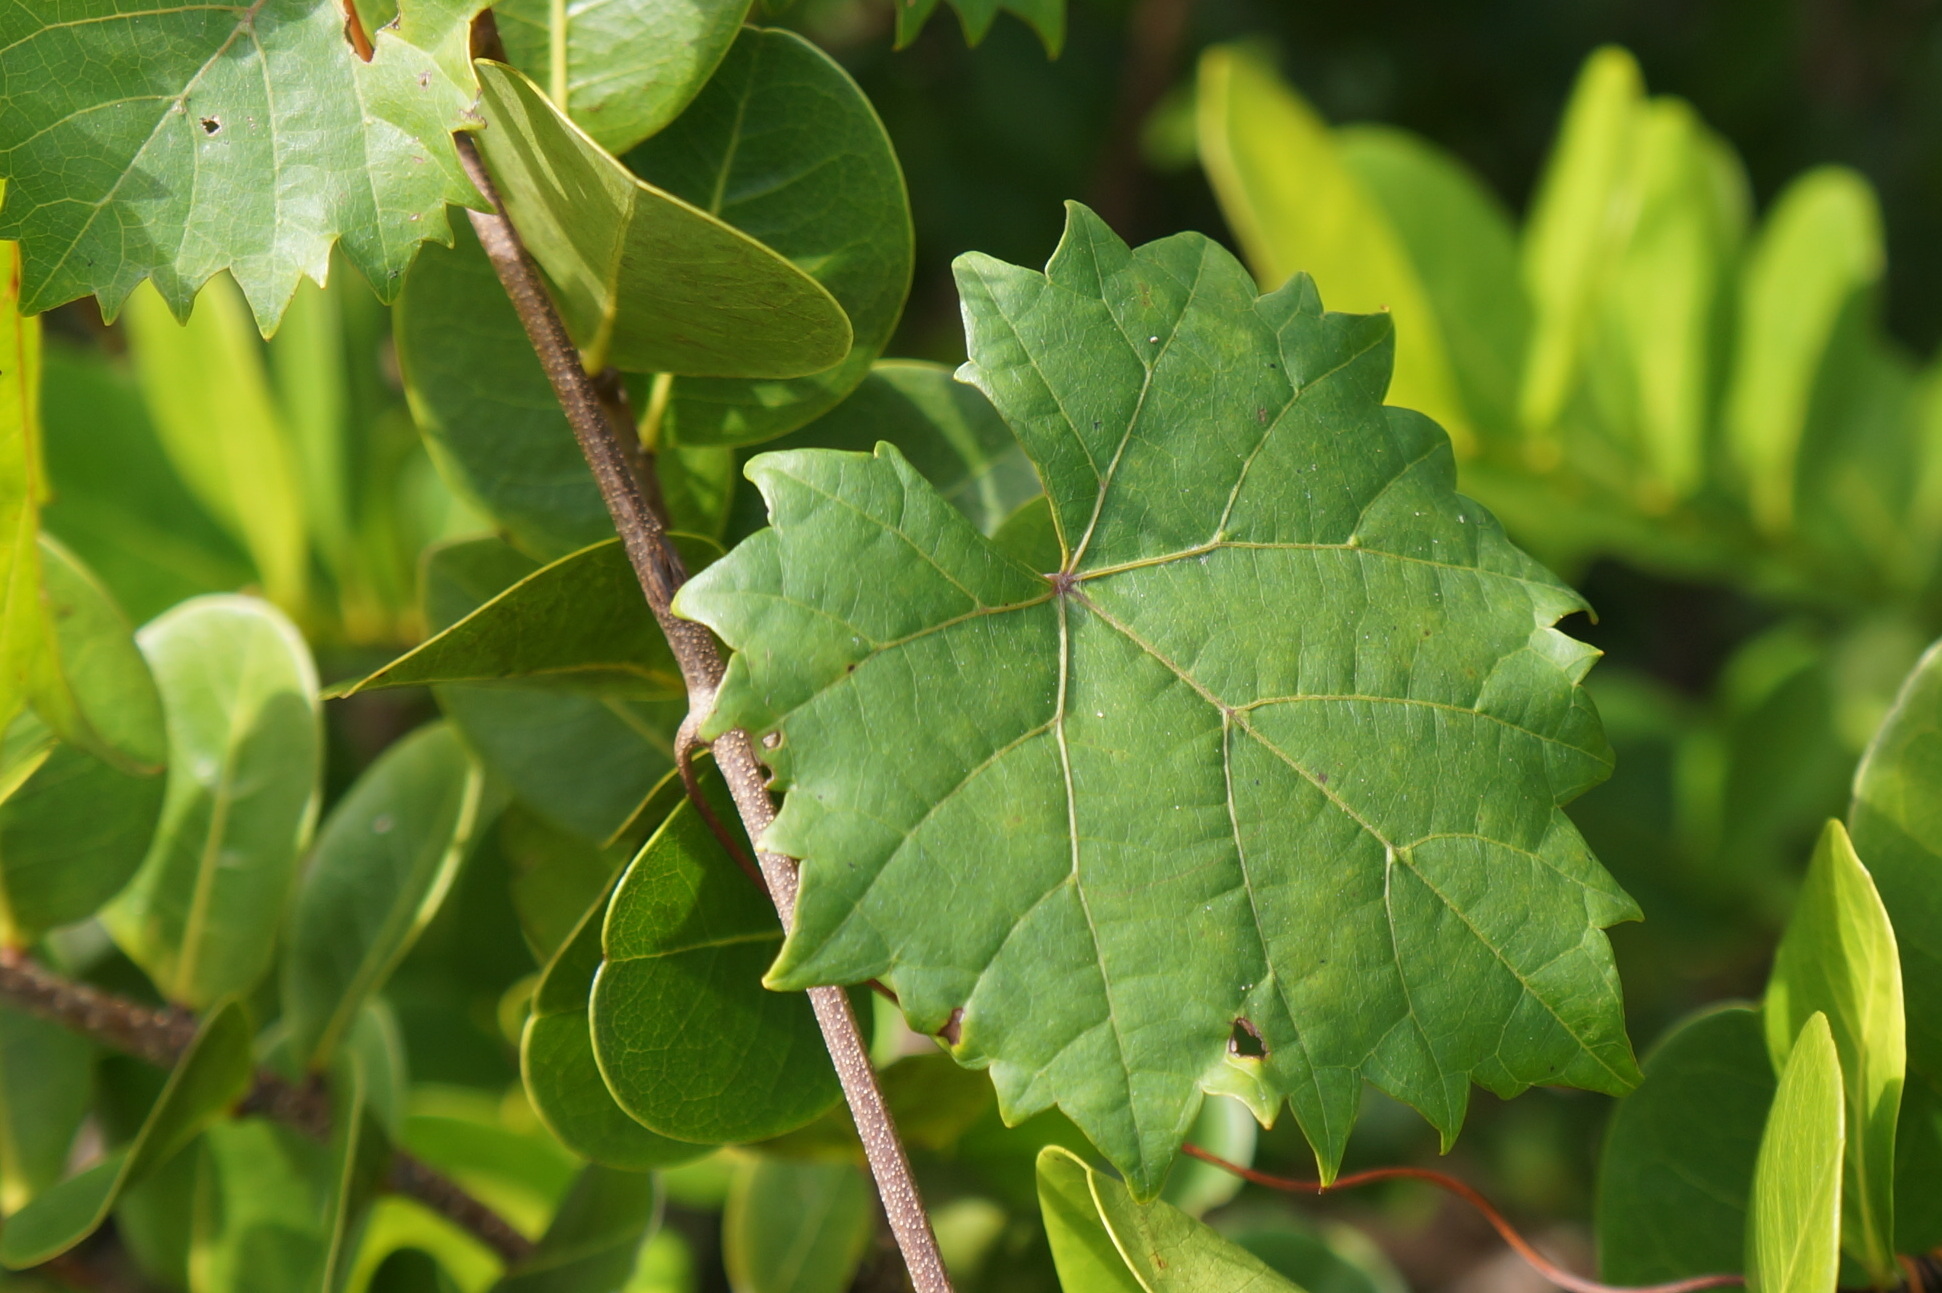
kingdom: Plantae
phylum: Tracheophyta
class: Magnoliopsida
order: Vitales
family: Vitaceae
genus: Vitis
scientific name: Vitis rotundifolia
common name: Muscadine grape
